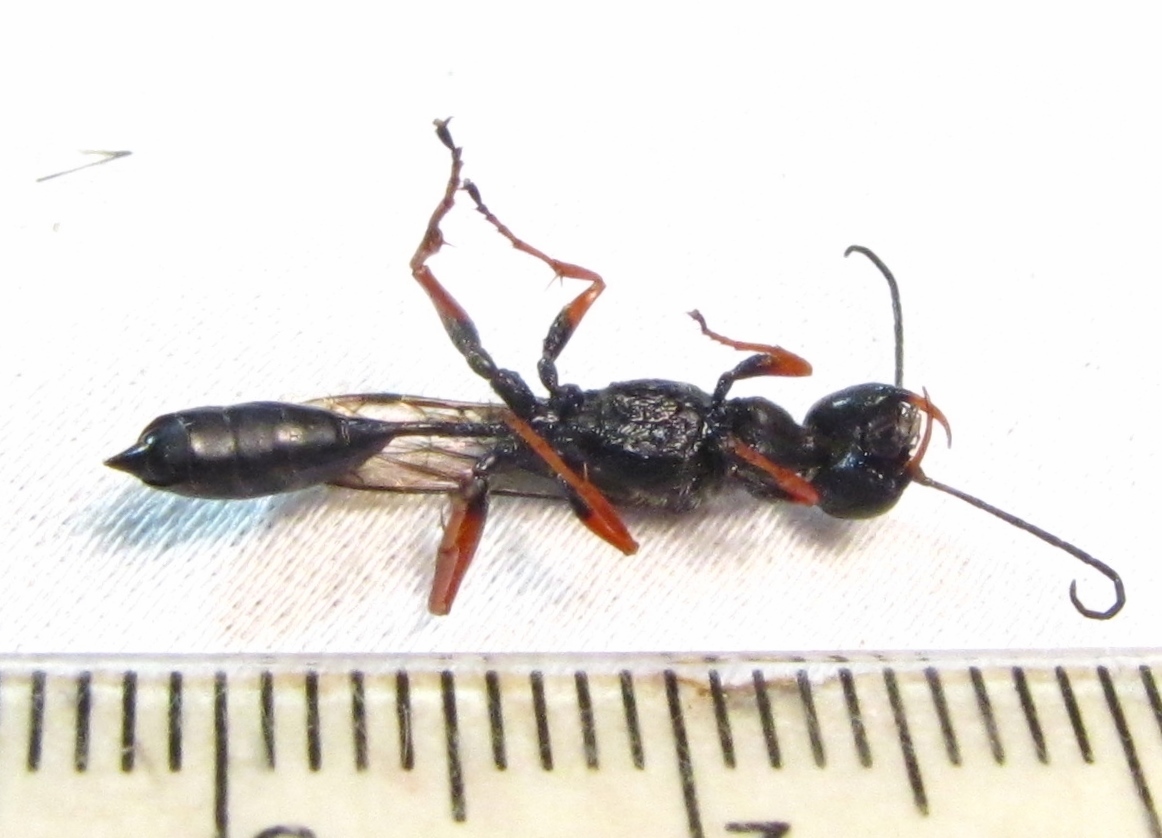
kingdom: Animalia
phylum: Arthropoda
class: Insecta
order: Hymenoptera
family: Sphecidae
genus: Podium
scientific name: Podium rufipes
